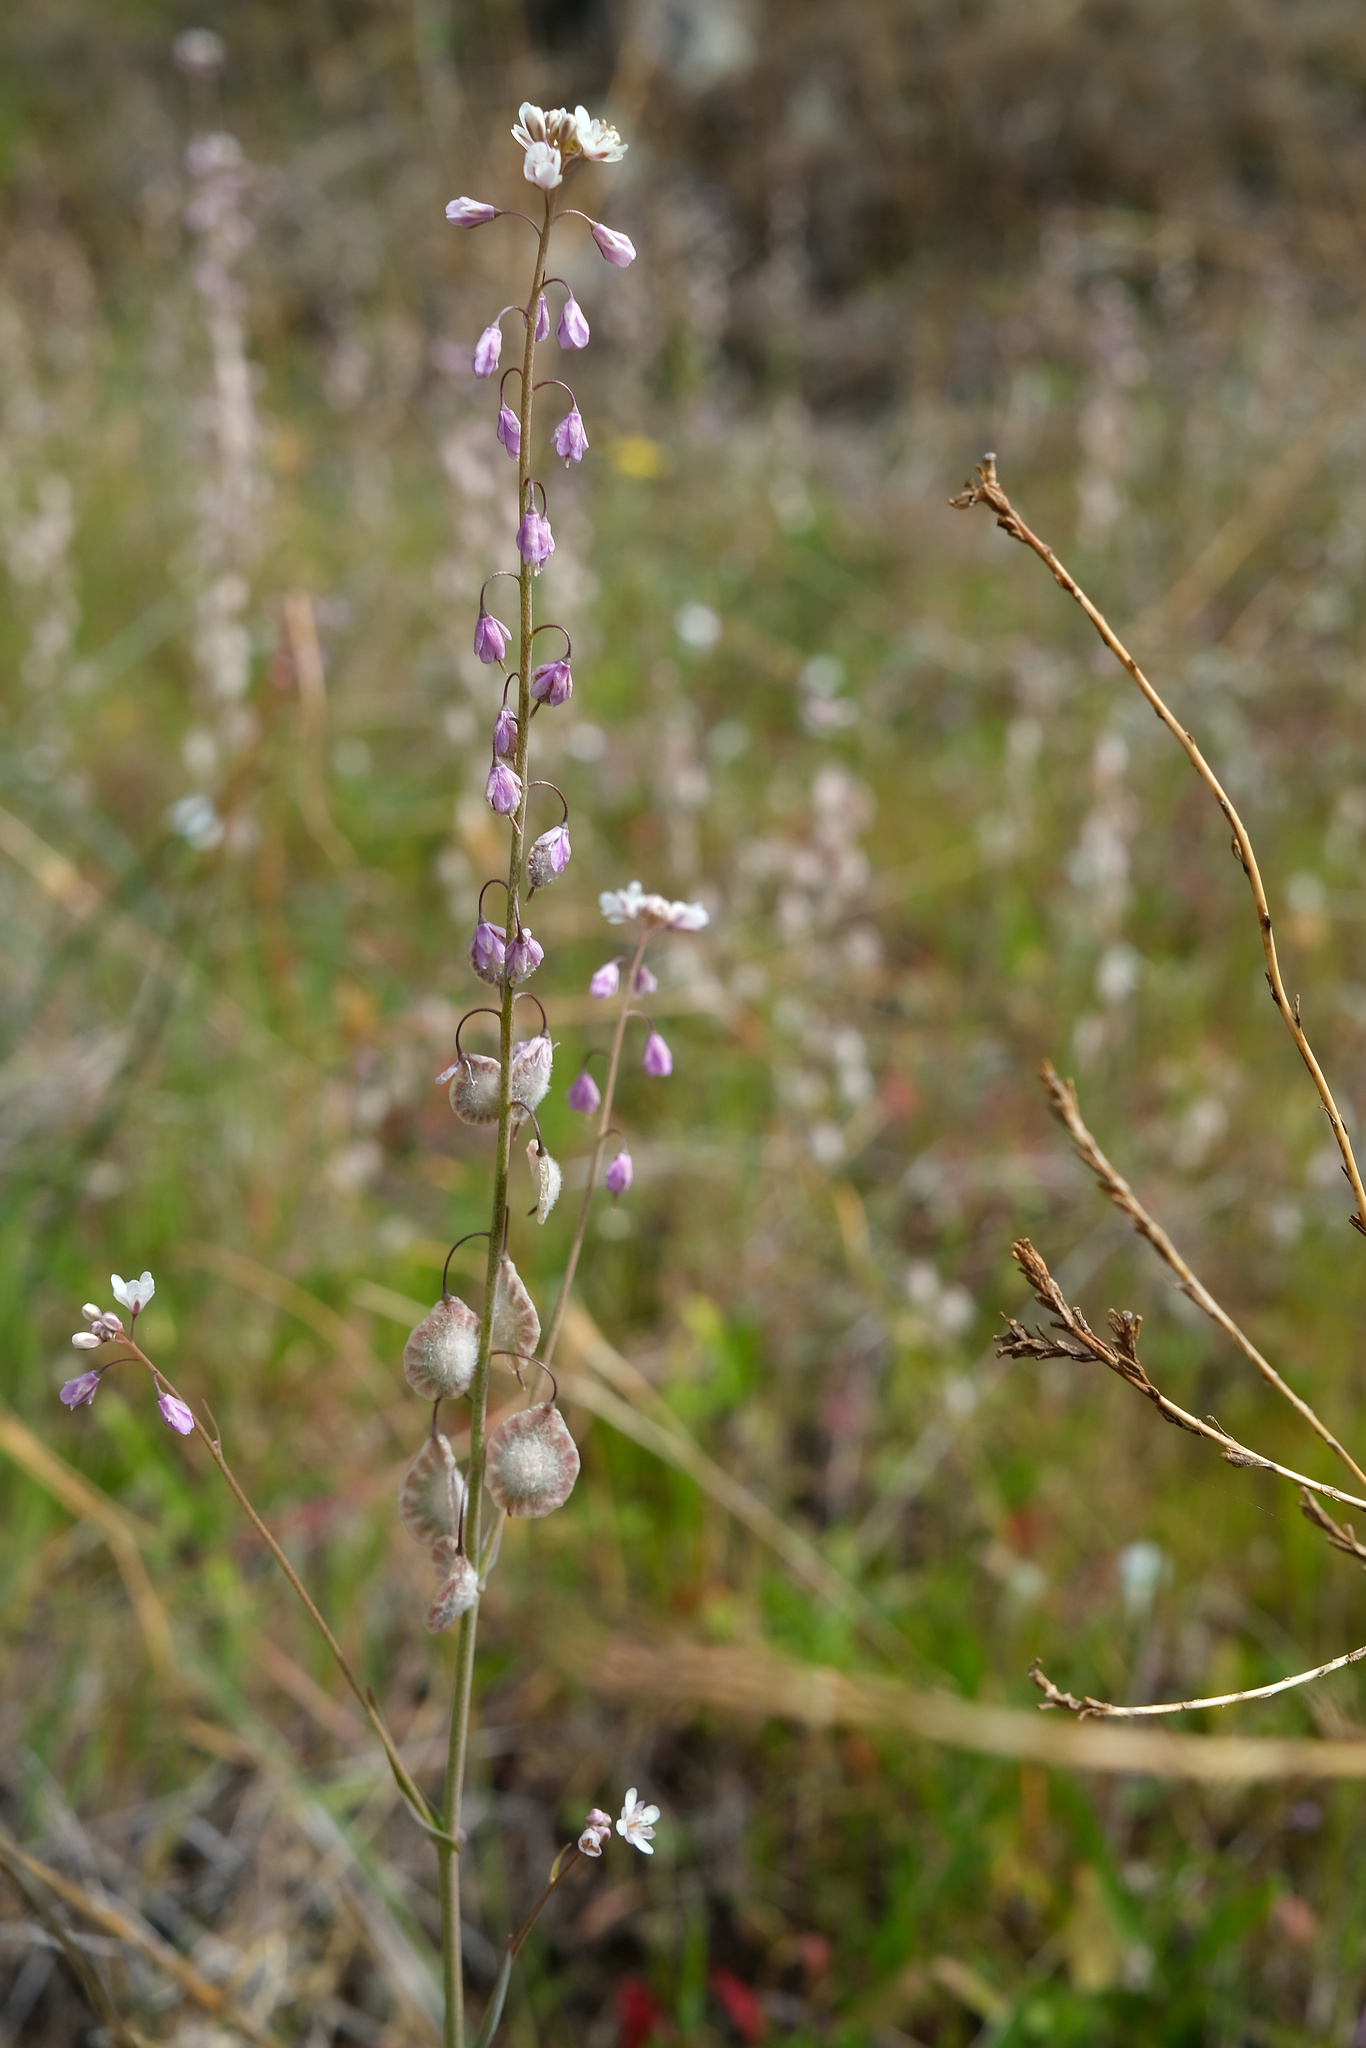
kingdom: Plantae
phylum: Tracheophyta
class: Magnoliopsida
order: Brassicales
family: Brassicaceae
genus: Thysanocarpus
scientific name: Thysanocarpus curvipes
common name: Sand fringepod
